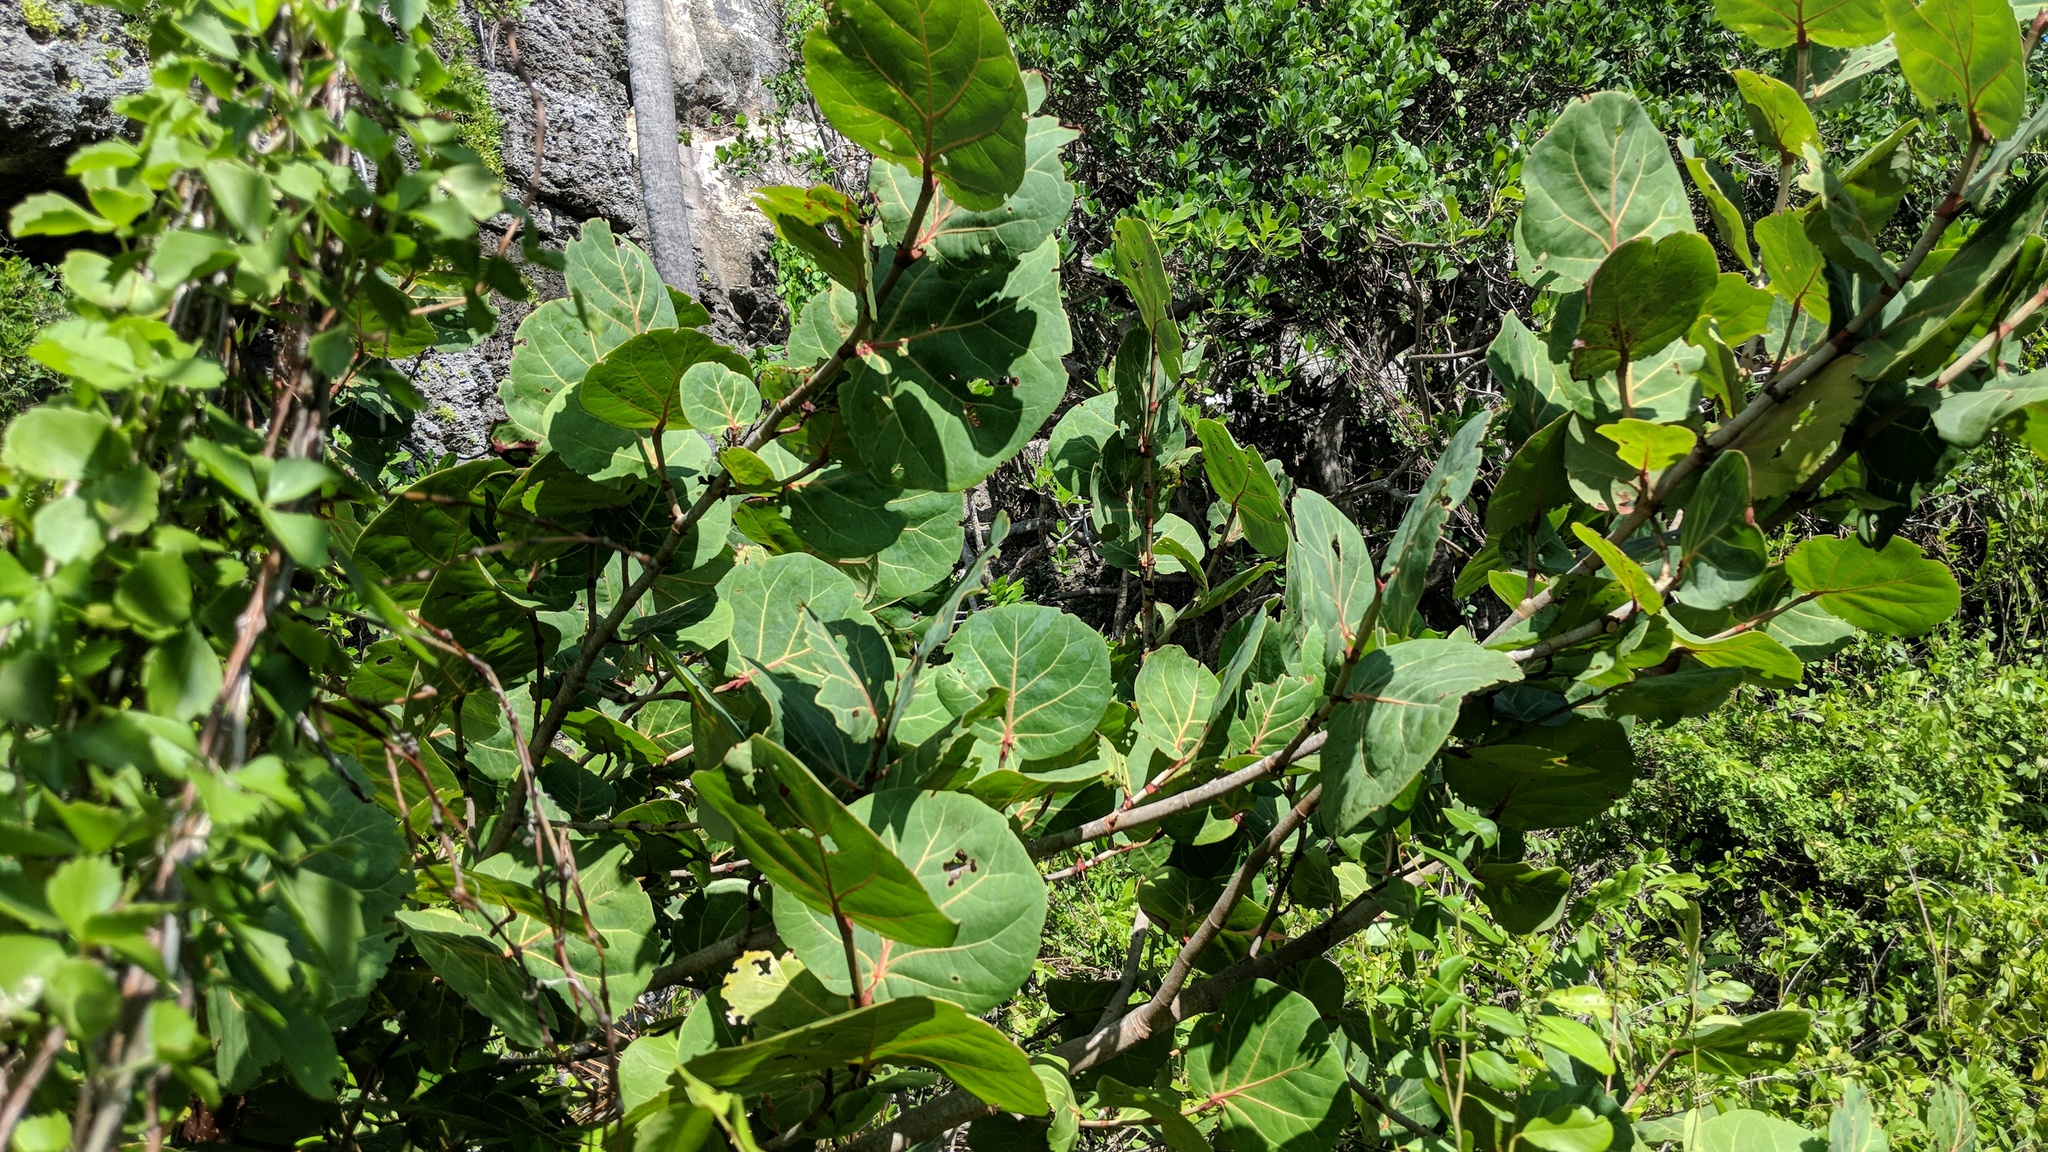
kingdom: Plantae
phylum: Tracheophyta
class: Magnoliopsida
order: Caryophyllales
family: Polygonaceae
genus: Coccoloba
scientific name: Coccoloba uvifera
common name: Seagrape
